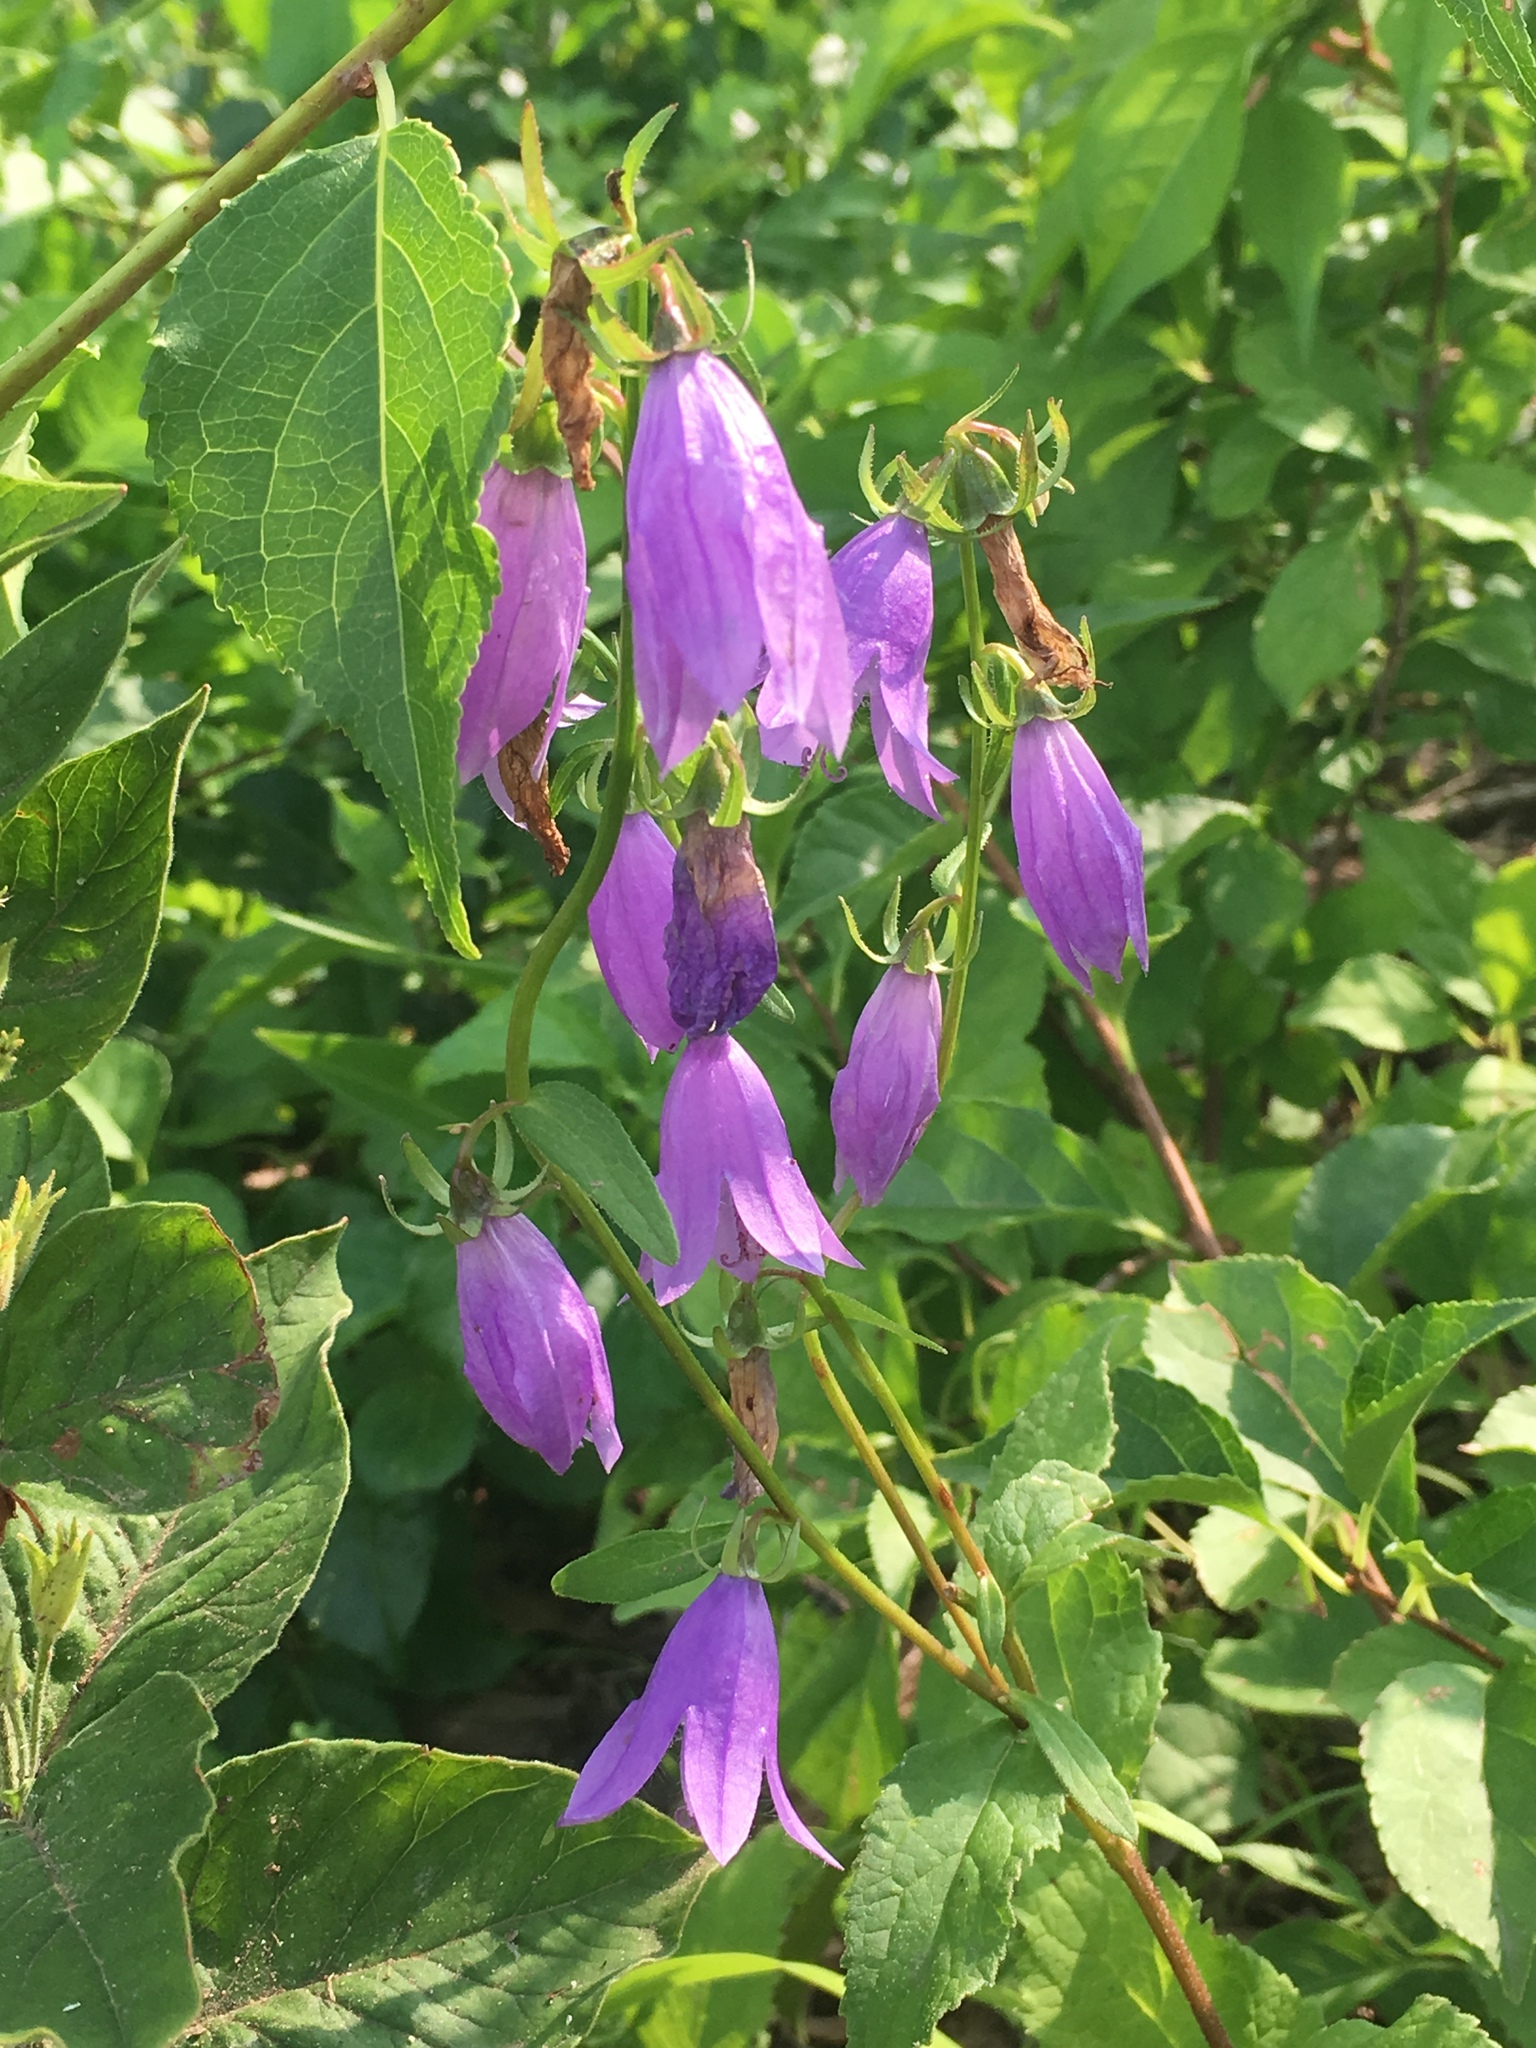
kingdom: Plantae
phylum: Tracheophyta
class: Magnoliopsida
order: Asterales
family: Campanulaceae
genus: Campanula
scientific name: Campanula rapunculoides
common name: Creeping bellflower
